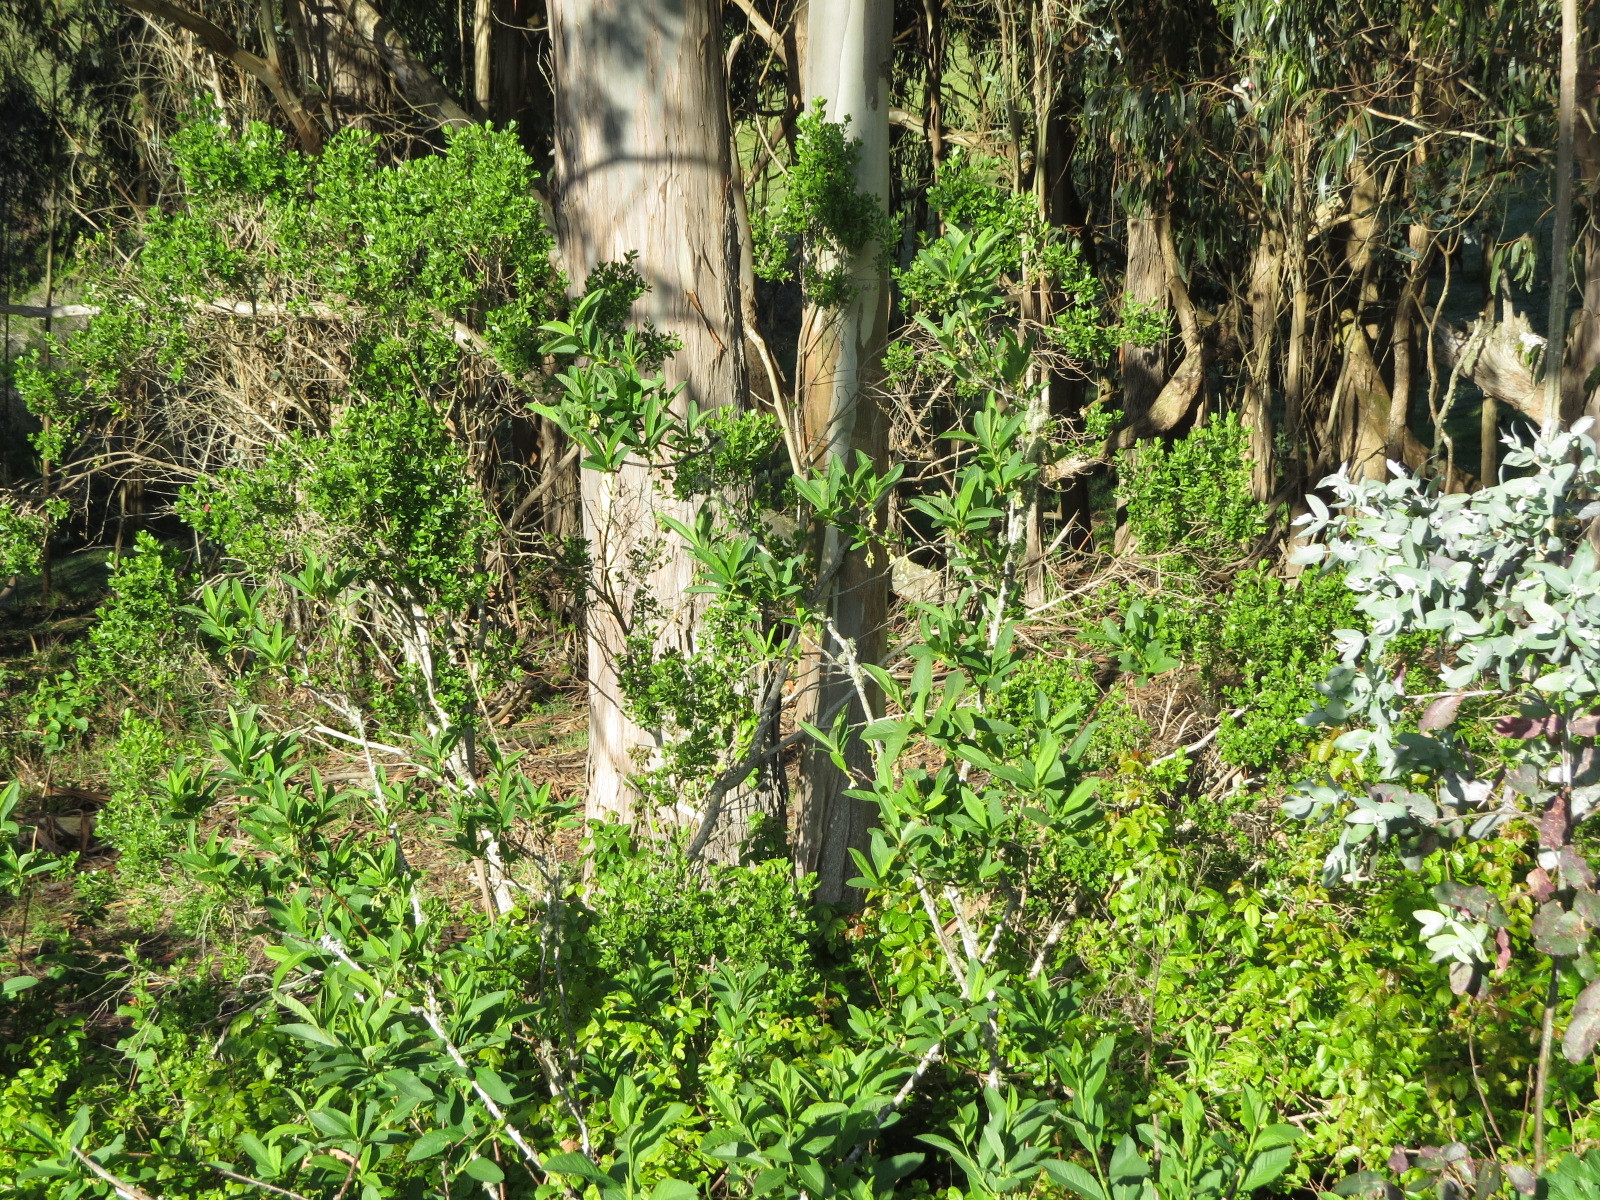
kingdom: Plantae
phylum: Tracheophyta
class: Magnoliopsida
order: Rosales
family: Rosaceae
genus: Oemleria
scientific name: Oemleria cerasiformis
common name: Osoberry
